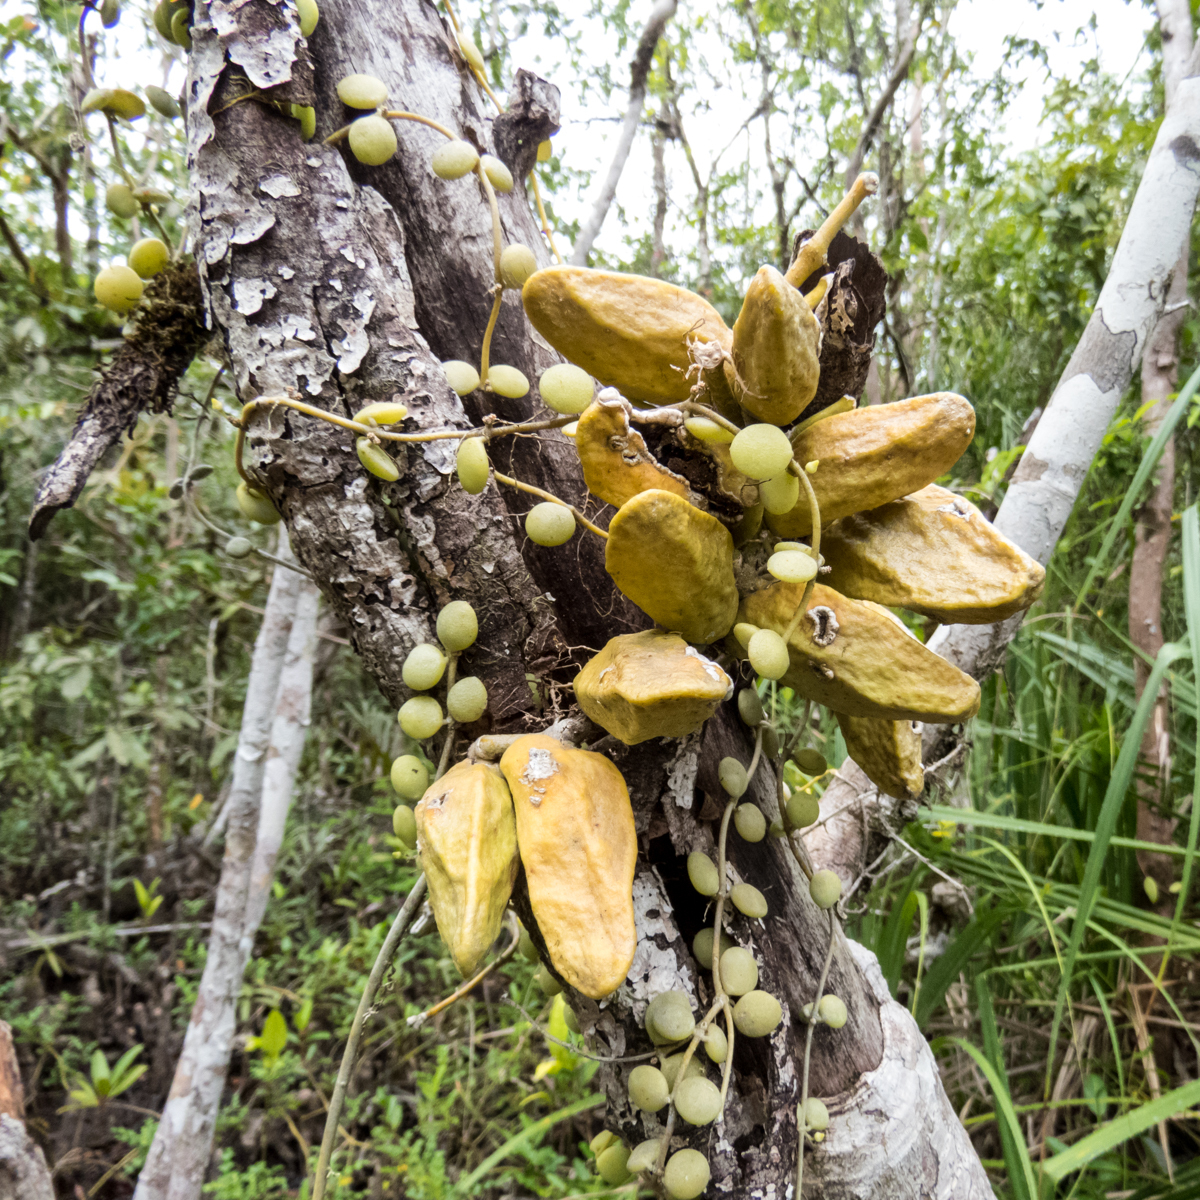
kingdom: Plantae
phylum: Tracheophyta
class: Magnoliopsida
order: Gentianales
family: Apocynaceae
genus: Dischidia
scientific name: Dischidia major
